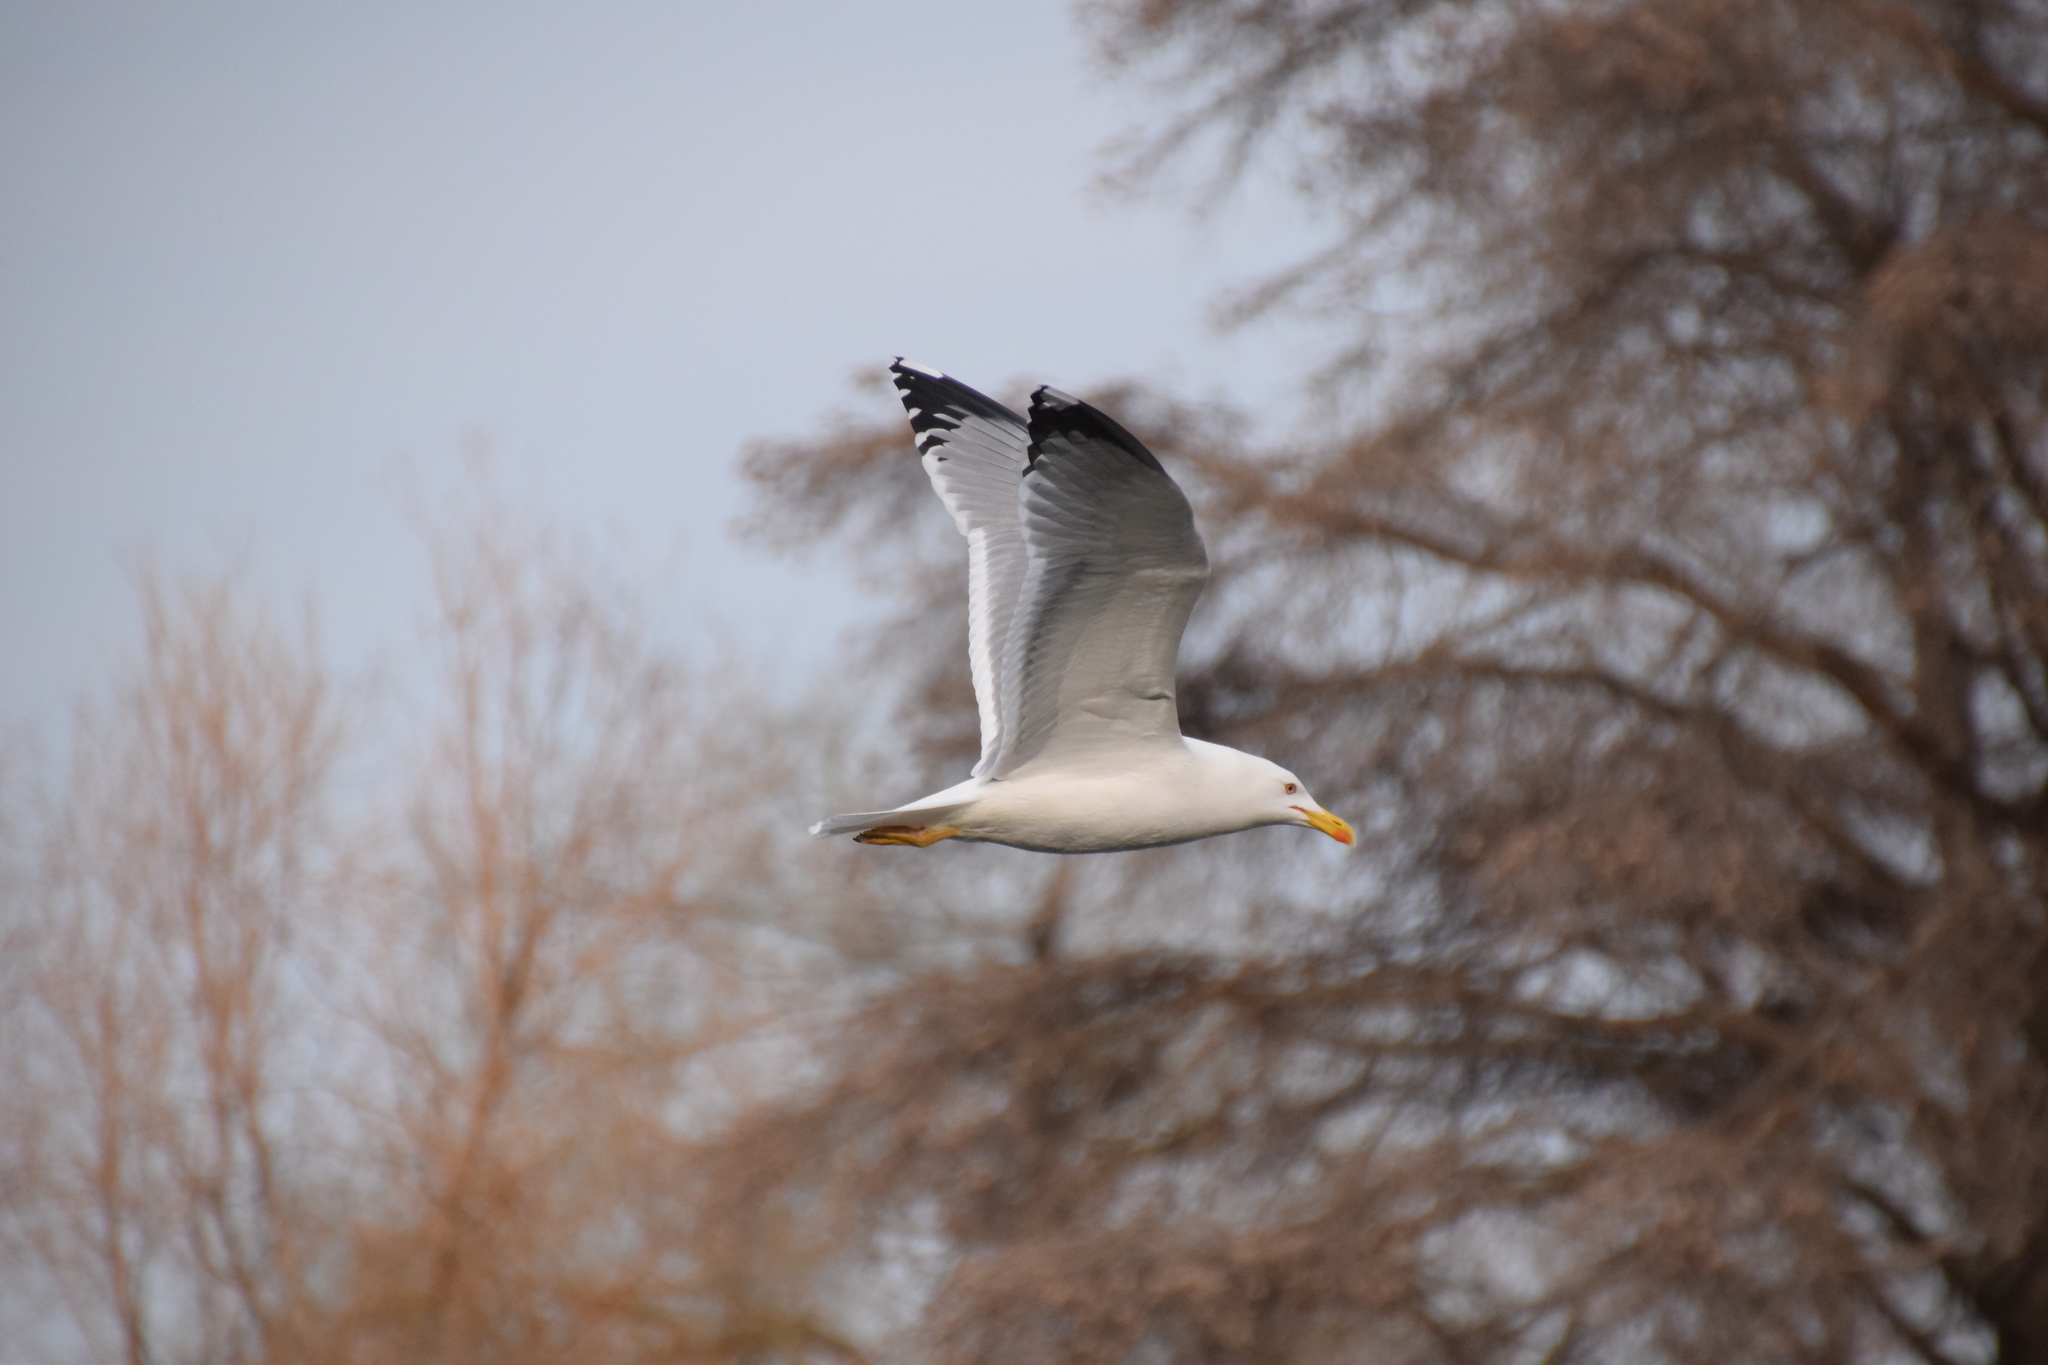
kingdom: Animalia
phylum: Chordata
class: Aves
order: Charadriiformes
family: Laridae
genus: Larus
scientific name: Larus michahellis
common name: Yellow-legged gull
